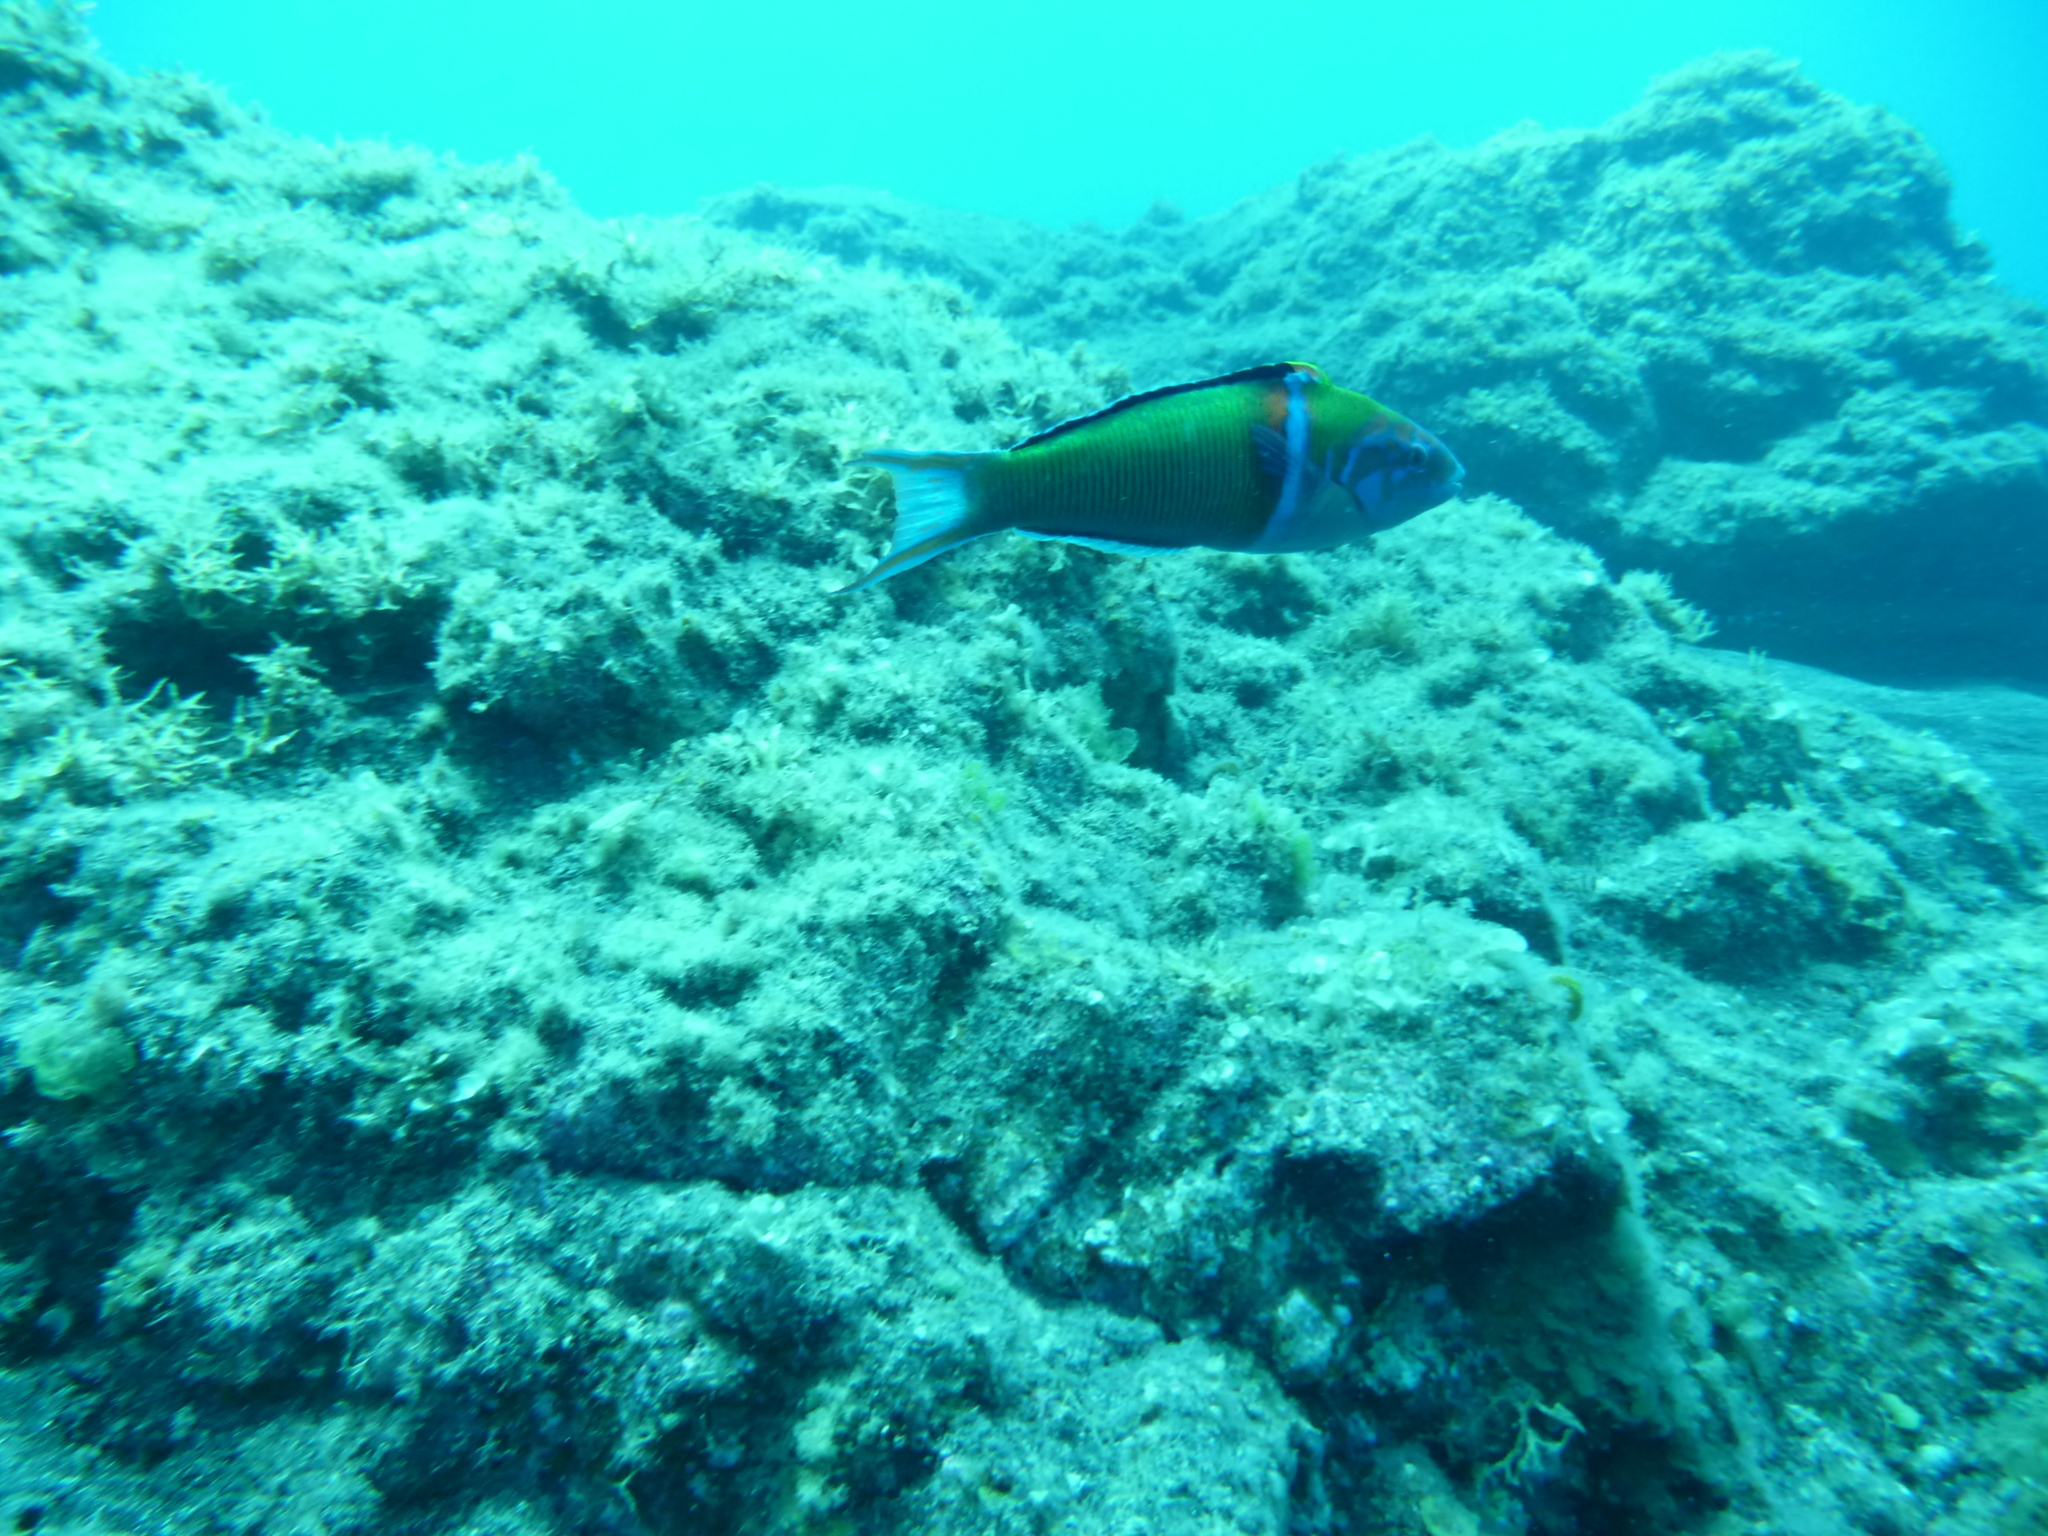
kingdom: Animalia
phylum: Chordata
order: Perciformes
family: Labridae
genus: Thalassoma
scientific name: Thalassoma pavo
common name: Ornate wrasse
